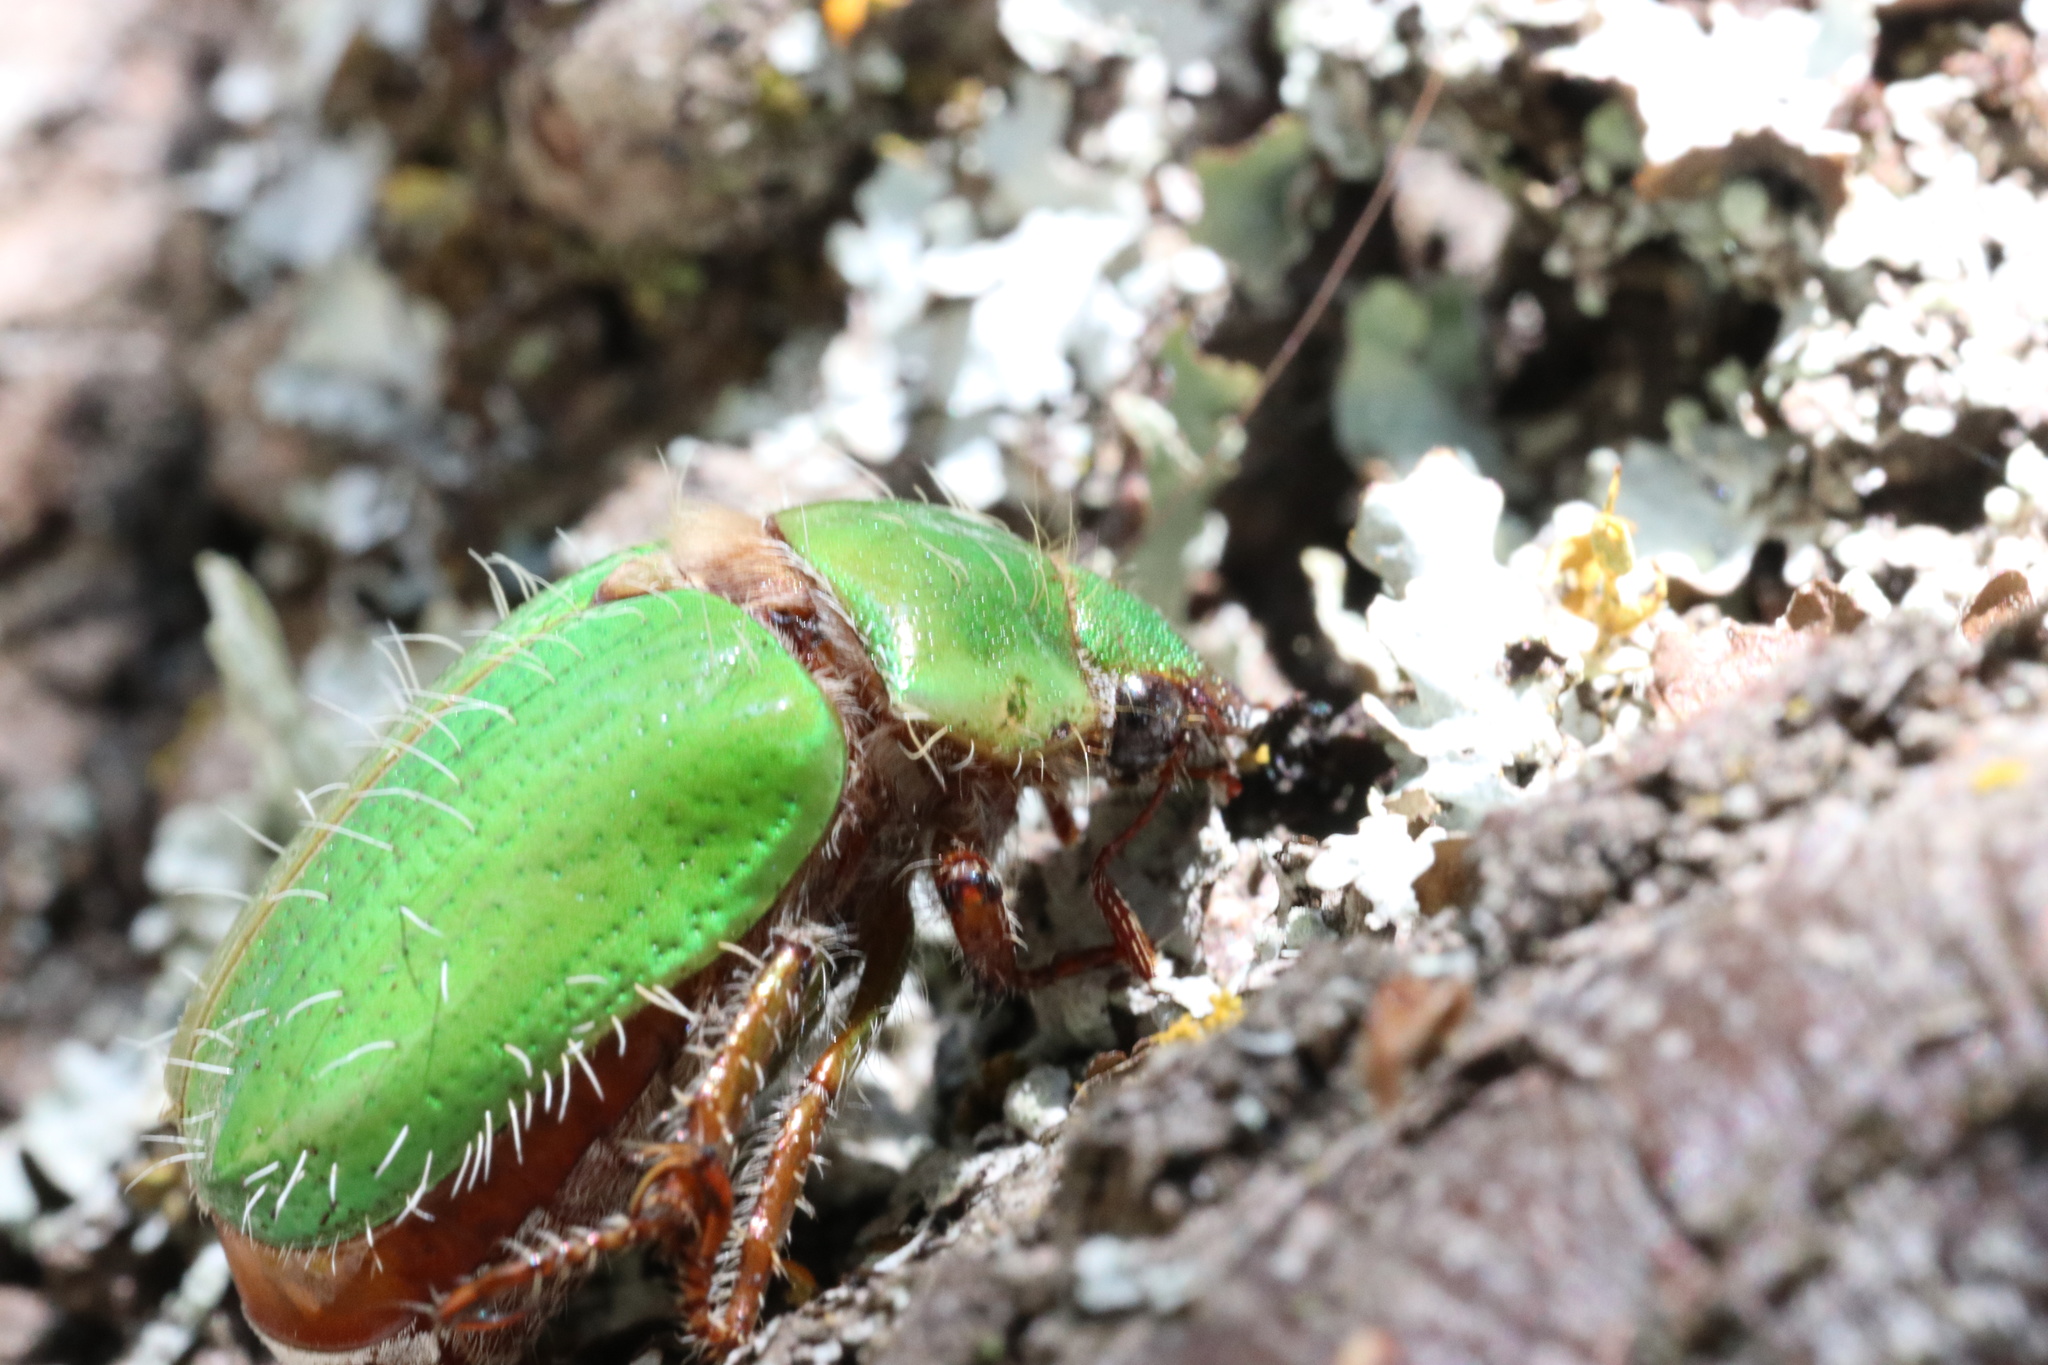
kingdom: Animalia
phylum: Arthropoda
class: Insecta
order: Coleoptera
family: Scarabaeidae
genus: Brachysternus
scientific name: Brachysternus prasinus
